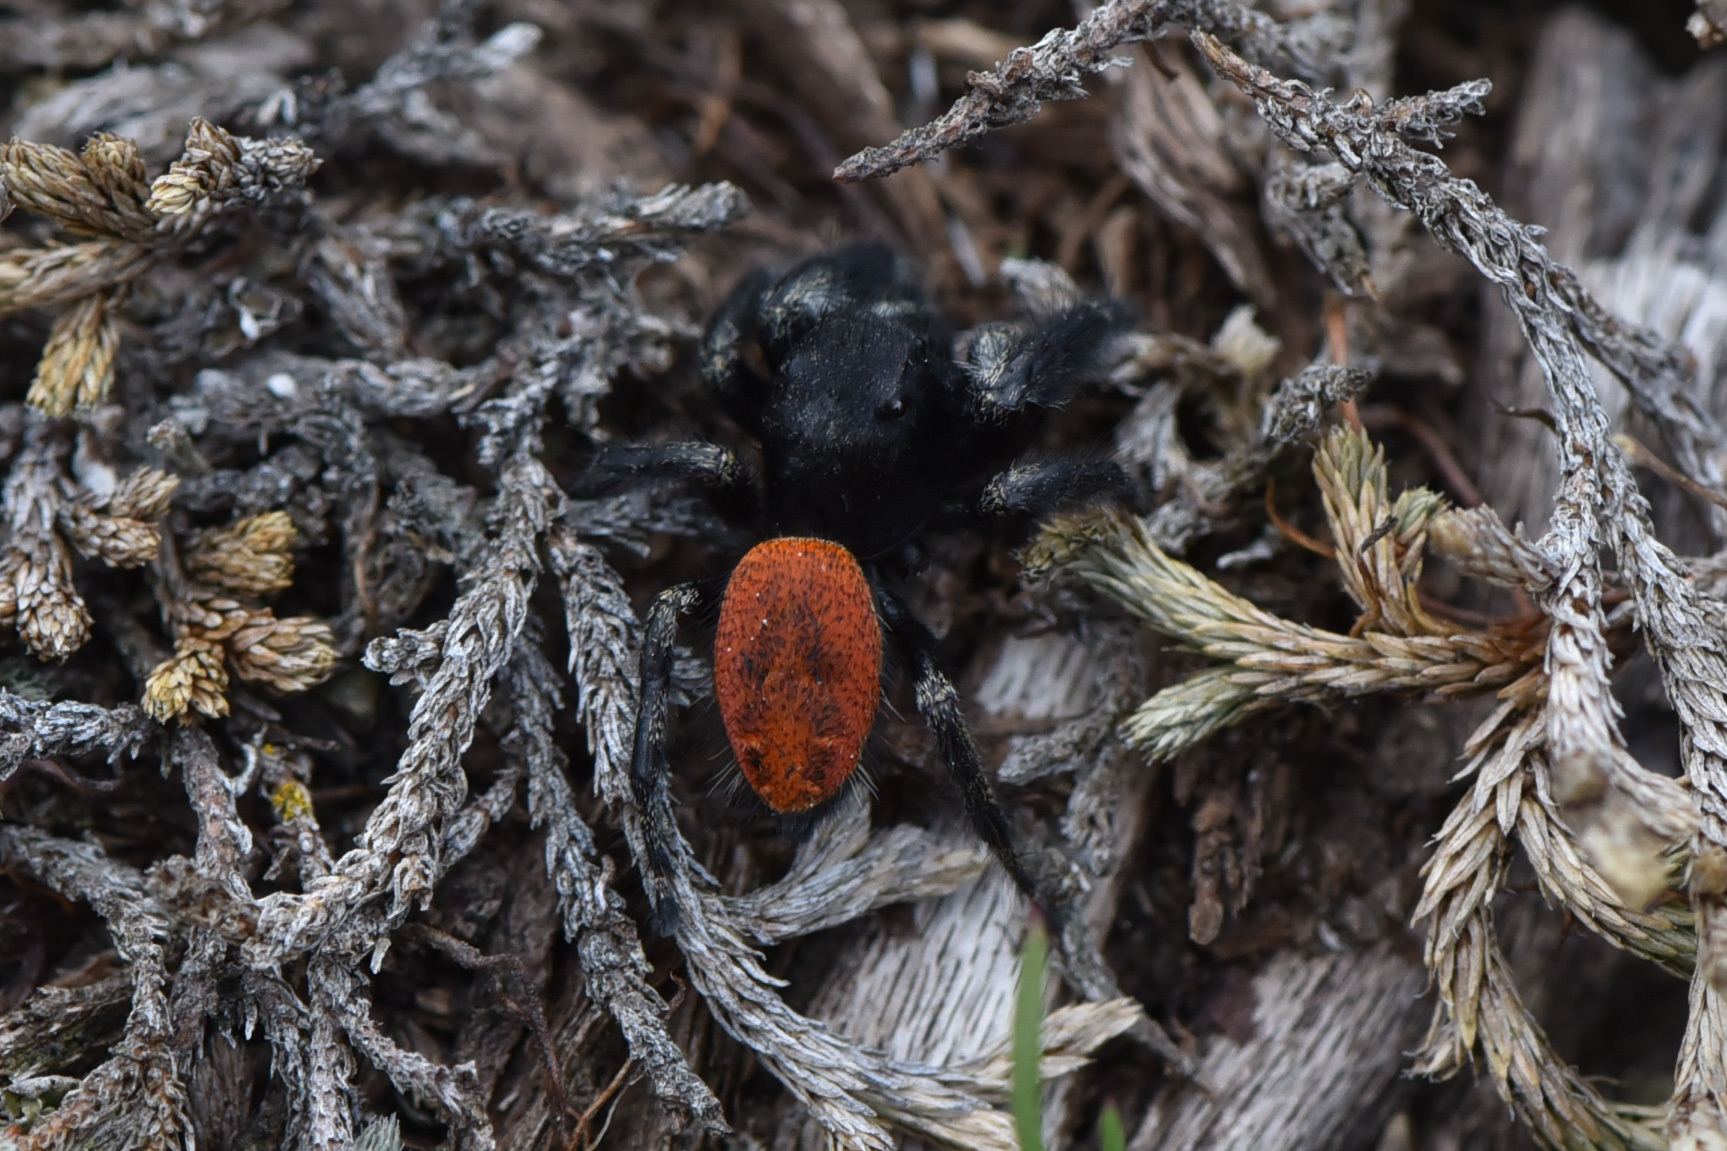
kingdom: Animalia
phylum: Arthropoda
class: Arachnida
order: Araneae
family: Salticidae
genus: Phidippus
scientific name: Phidippus johnsoni
